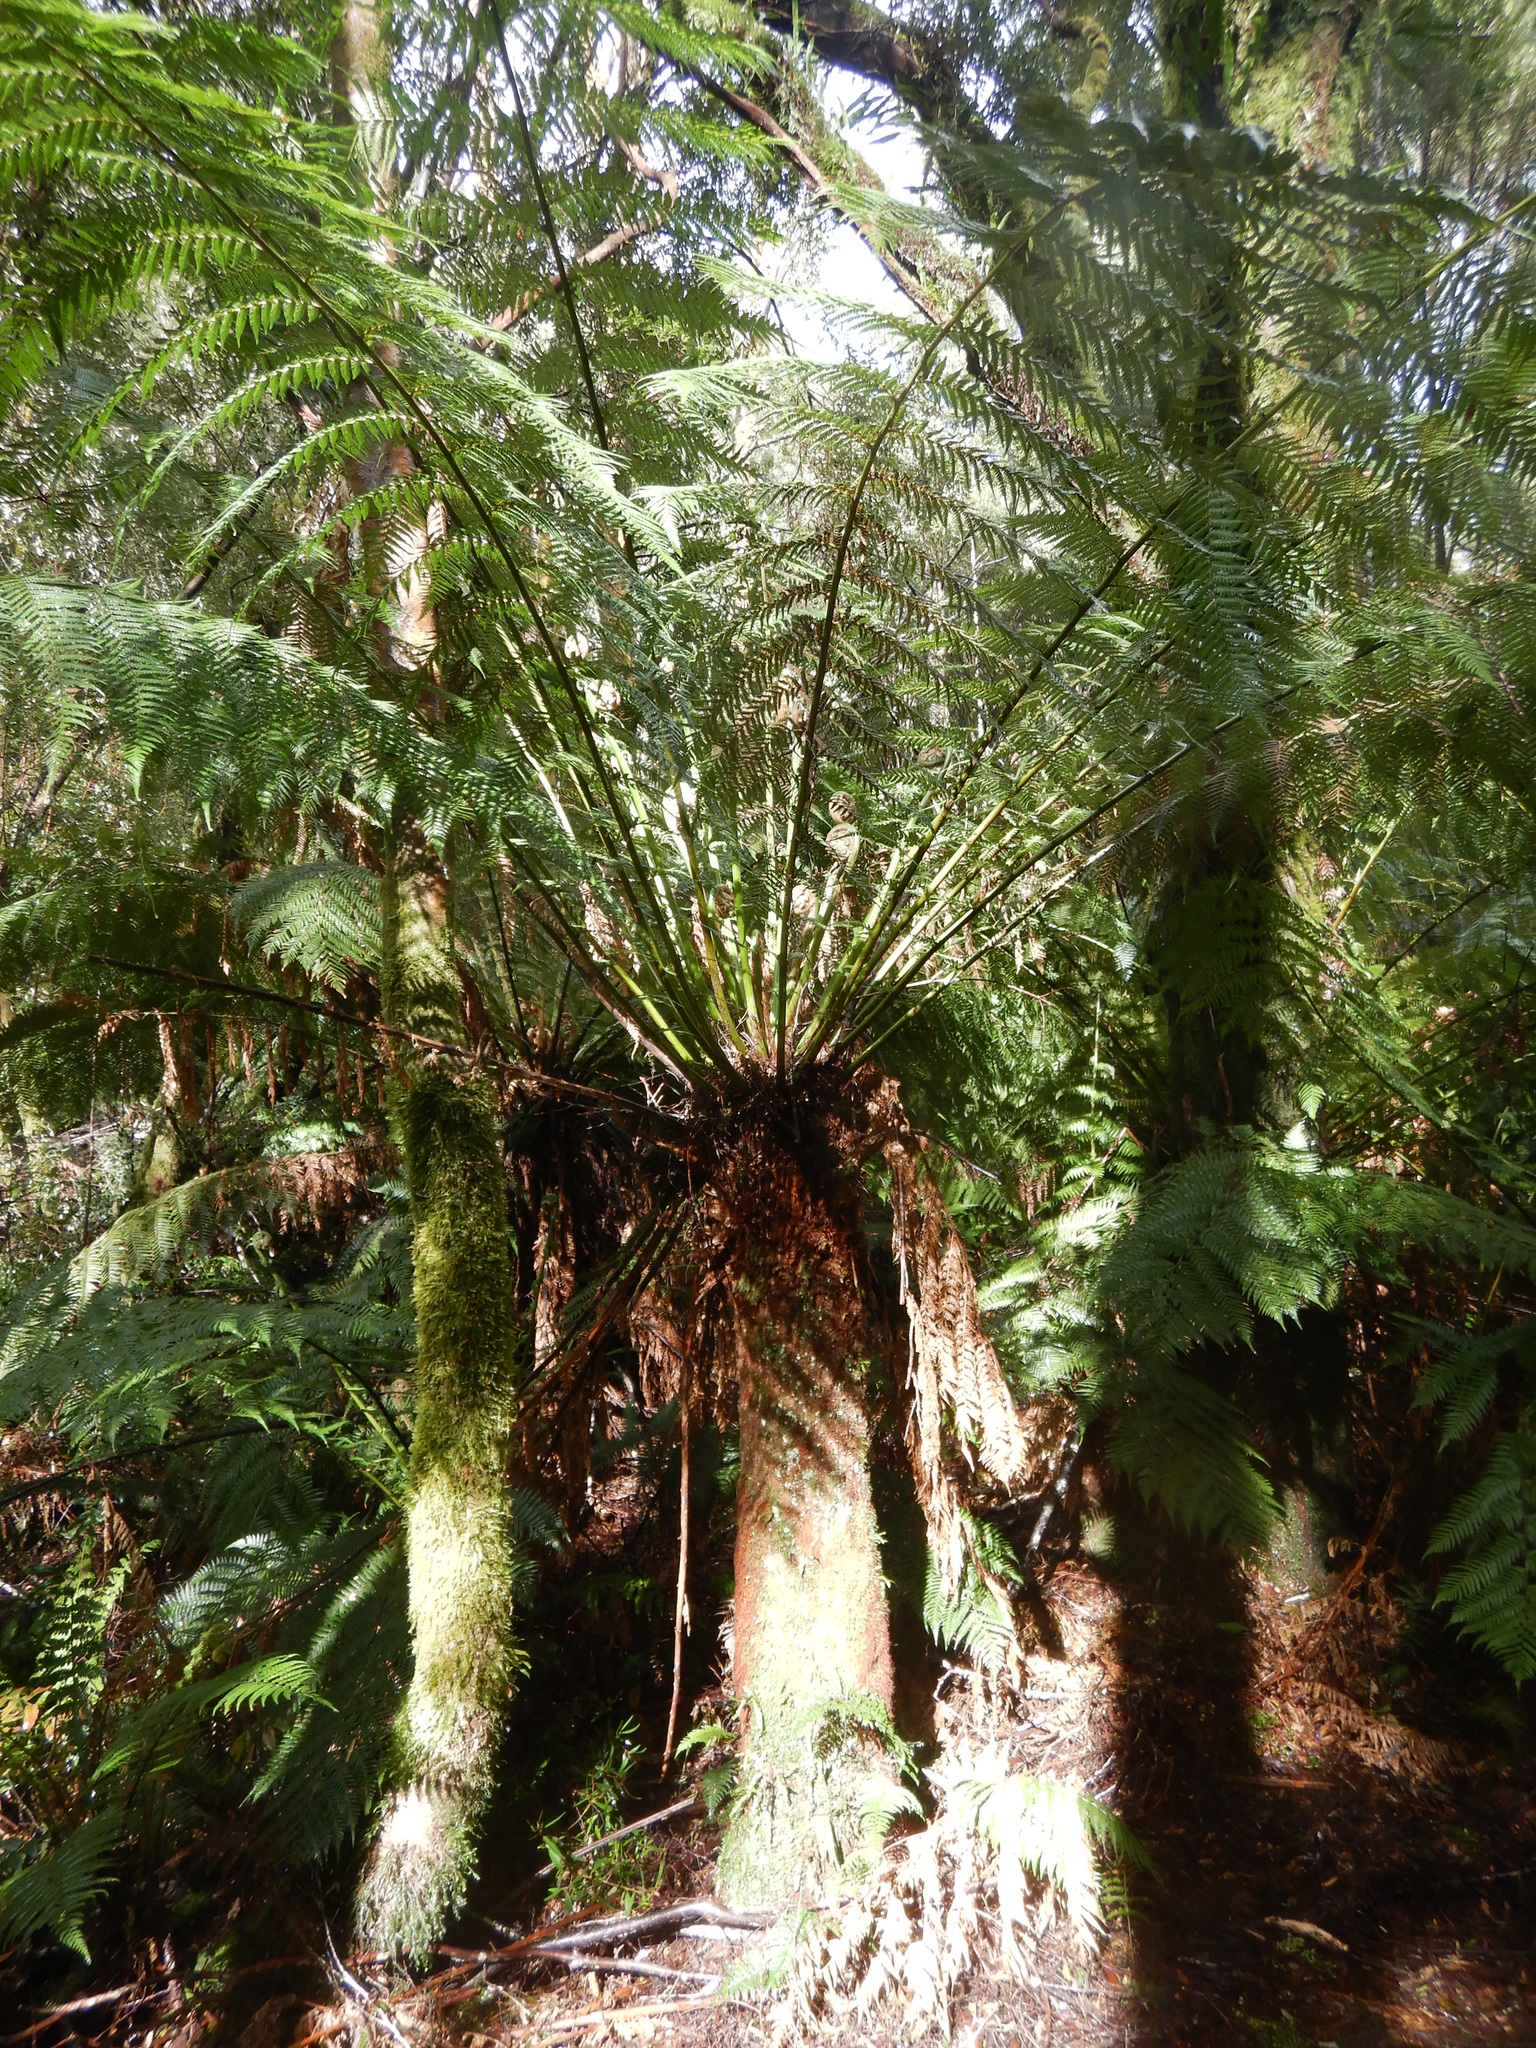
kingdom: Plantae
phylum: Tracheophyta
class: Polypodiopsida
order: Cyatheales
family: Dicksoniaceae
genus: Dicksonia
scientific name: Dicksonia antarctica
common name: Australian treefern
